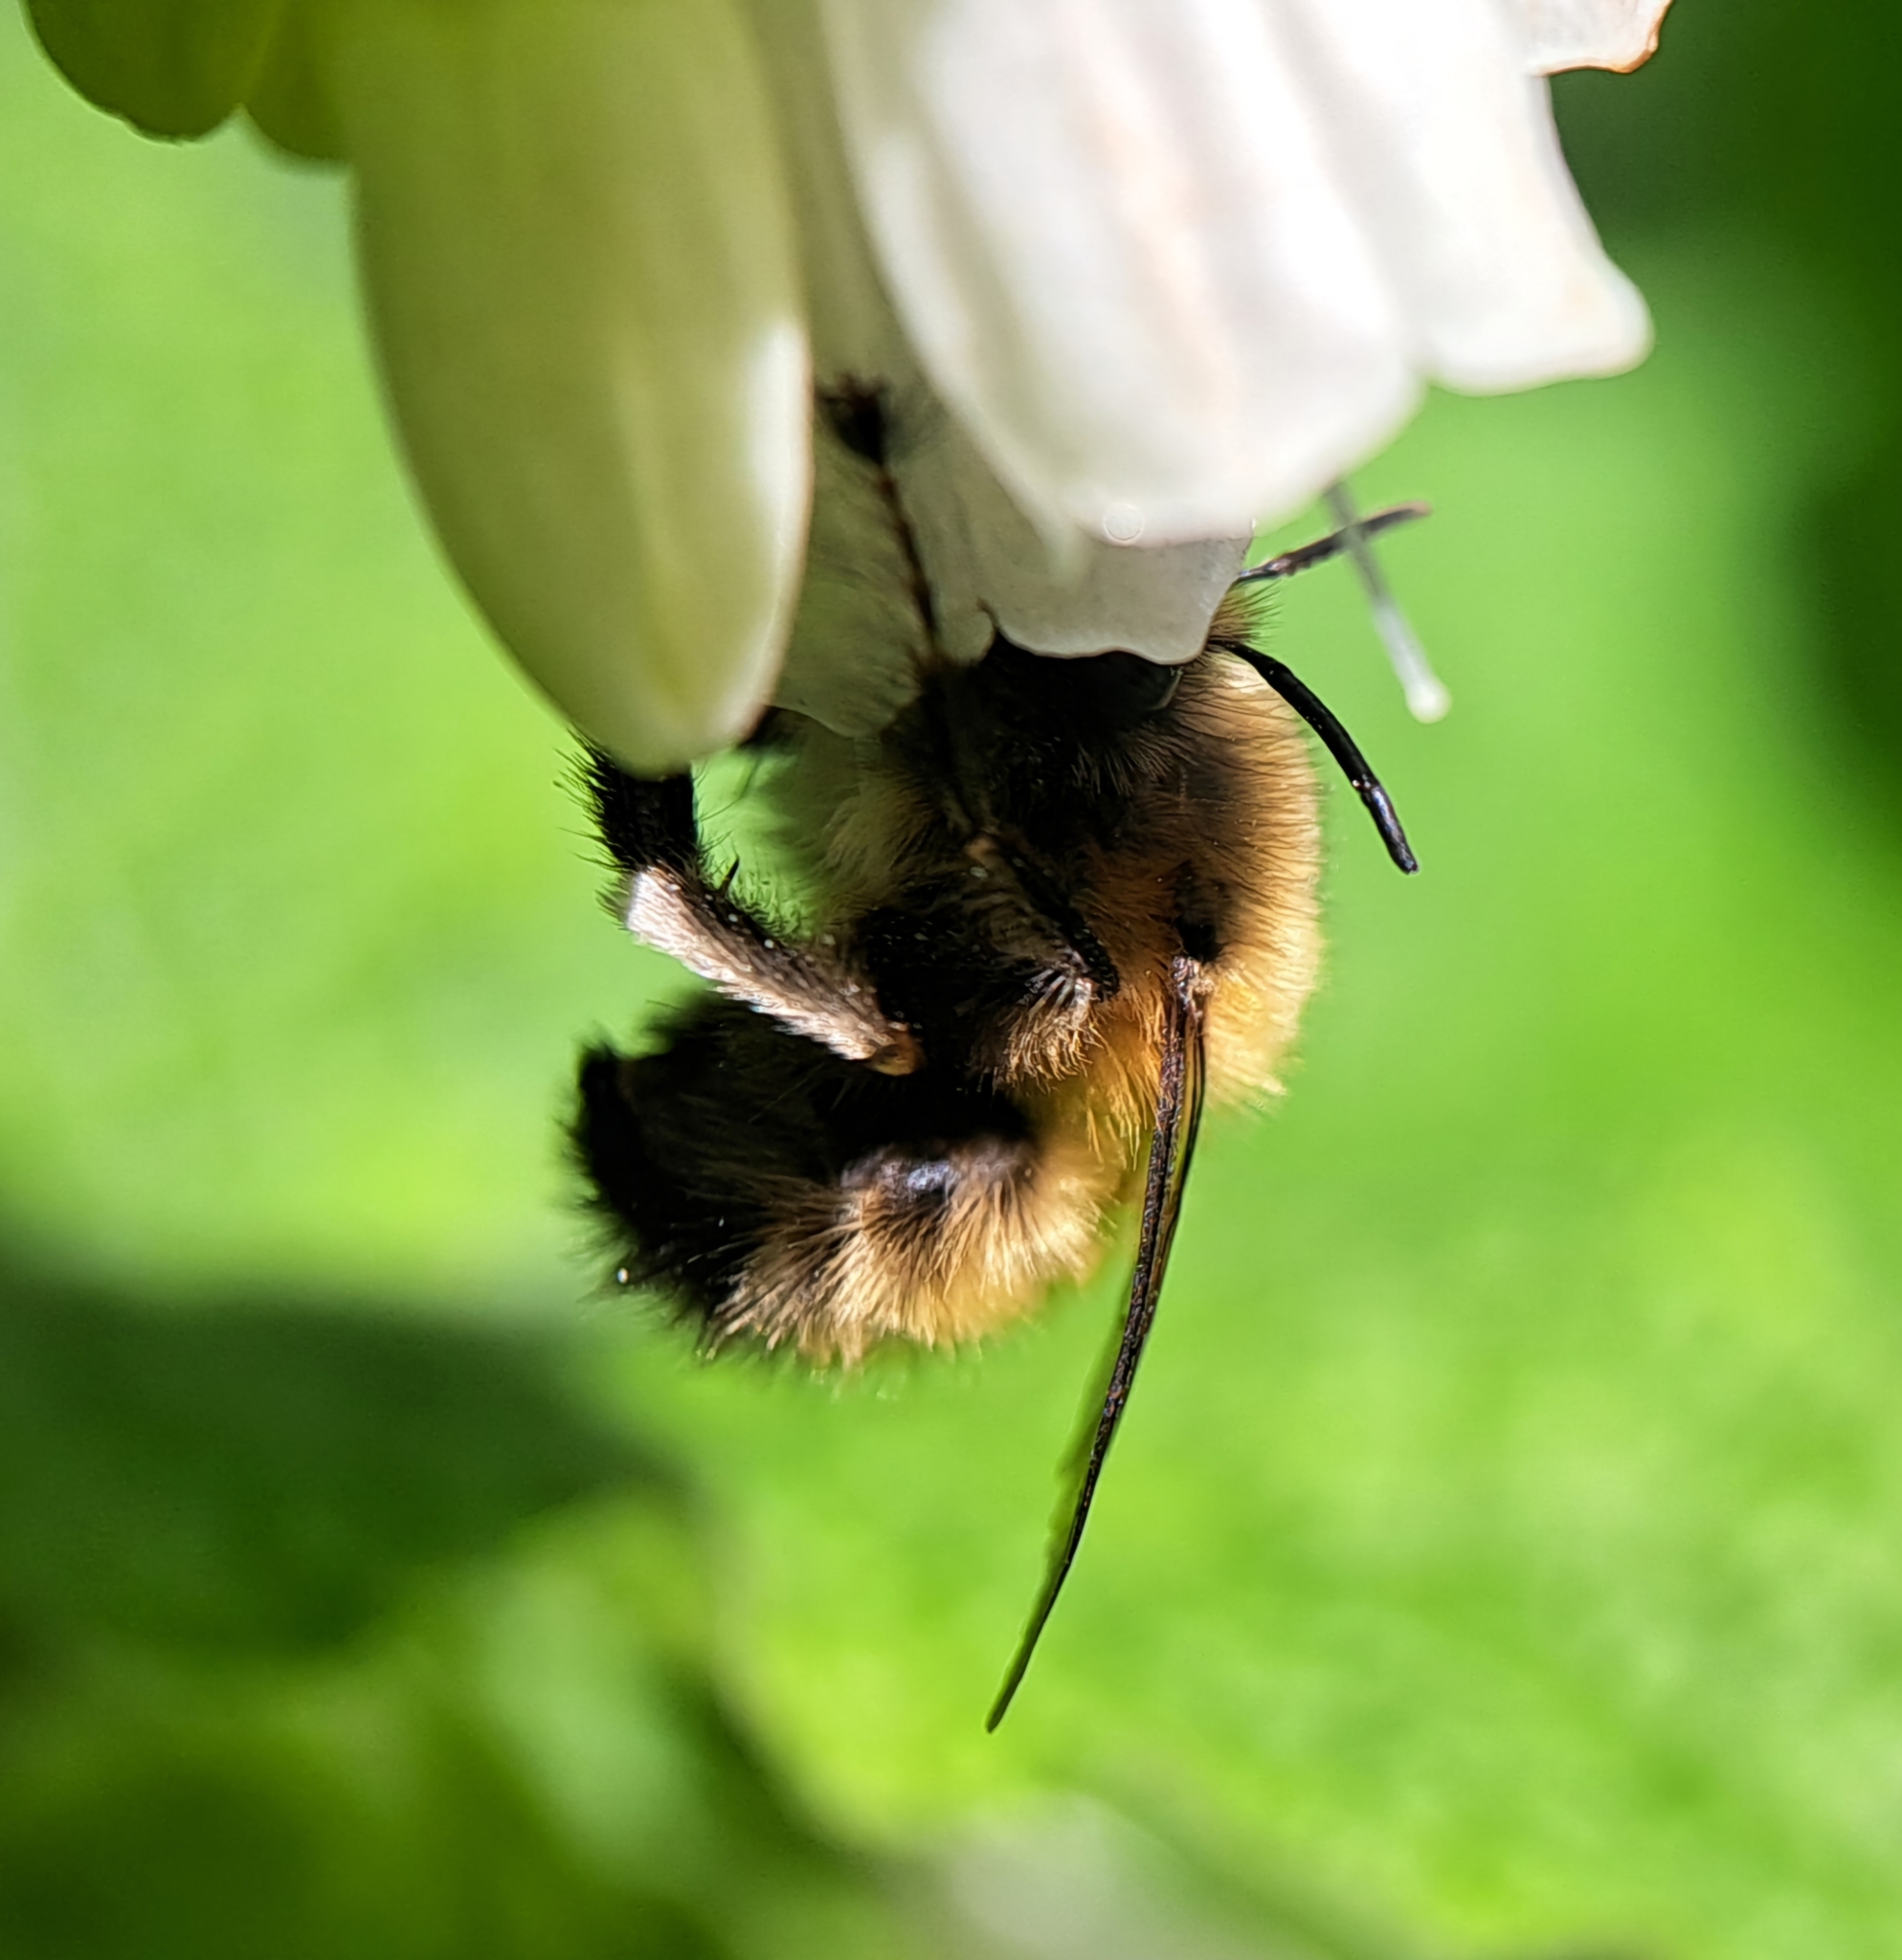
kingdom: Animalia
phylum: Arthropoda
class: Insecta
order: Hymenoptera
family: Apidae
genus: Anthophora
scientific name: Anthophora plumipes
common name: Hairy-footed flower bee
